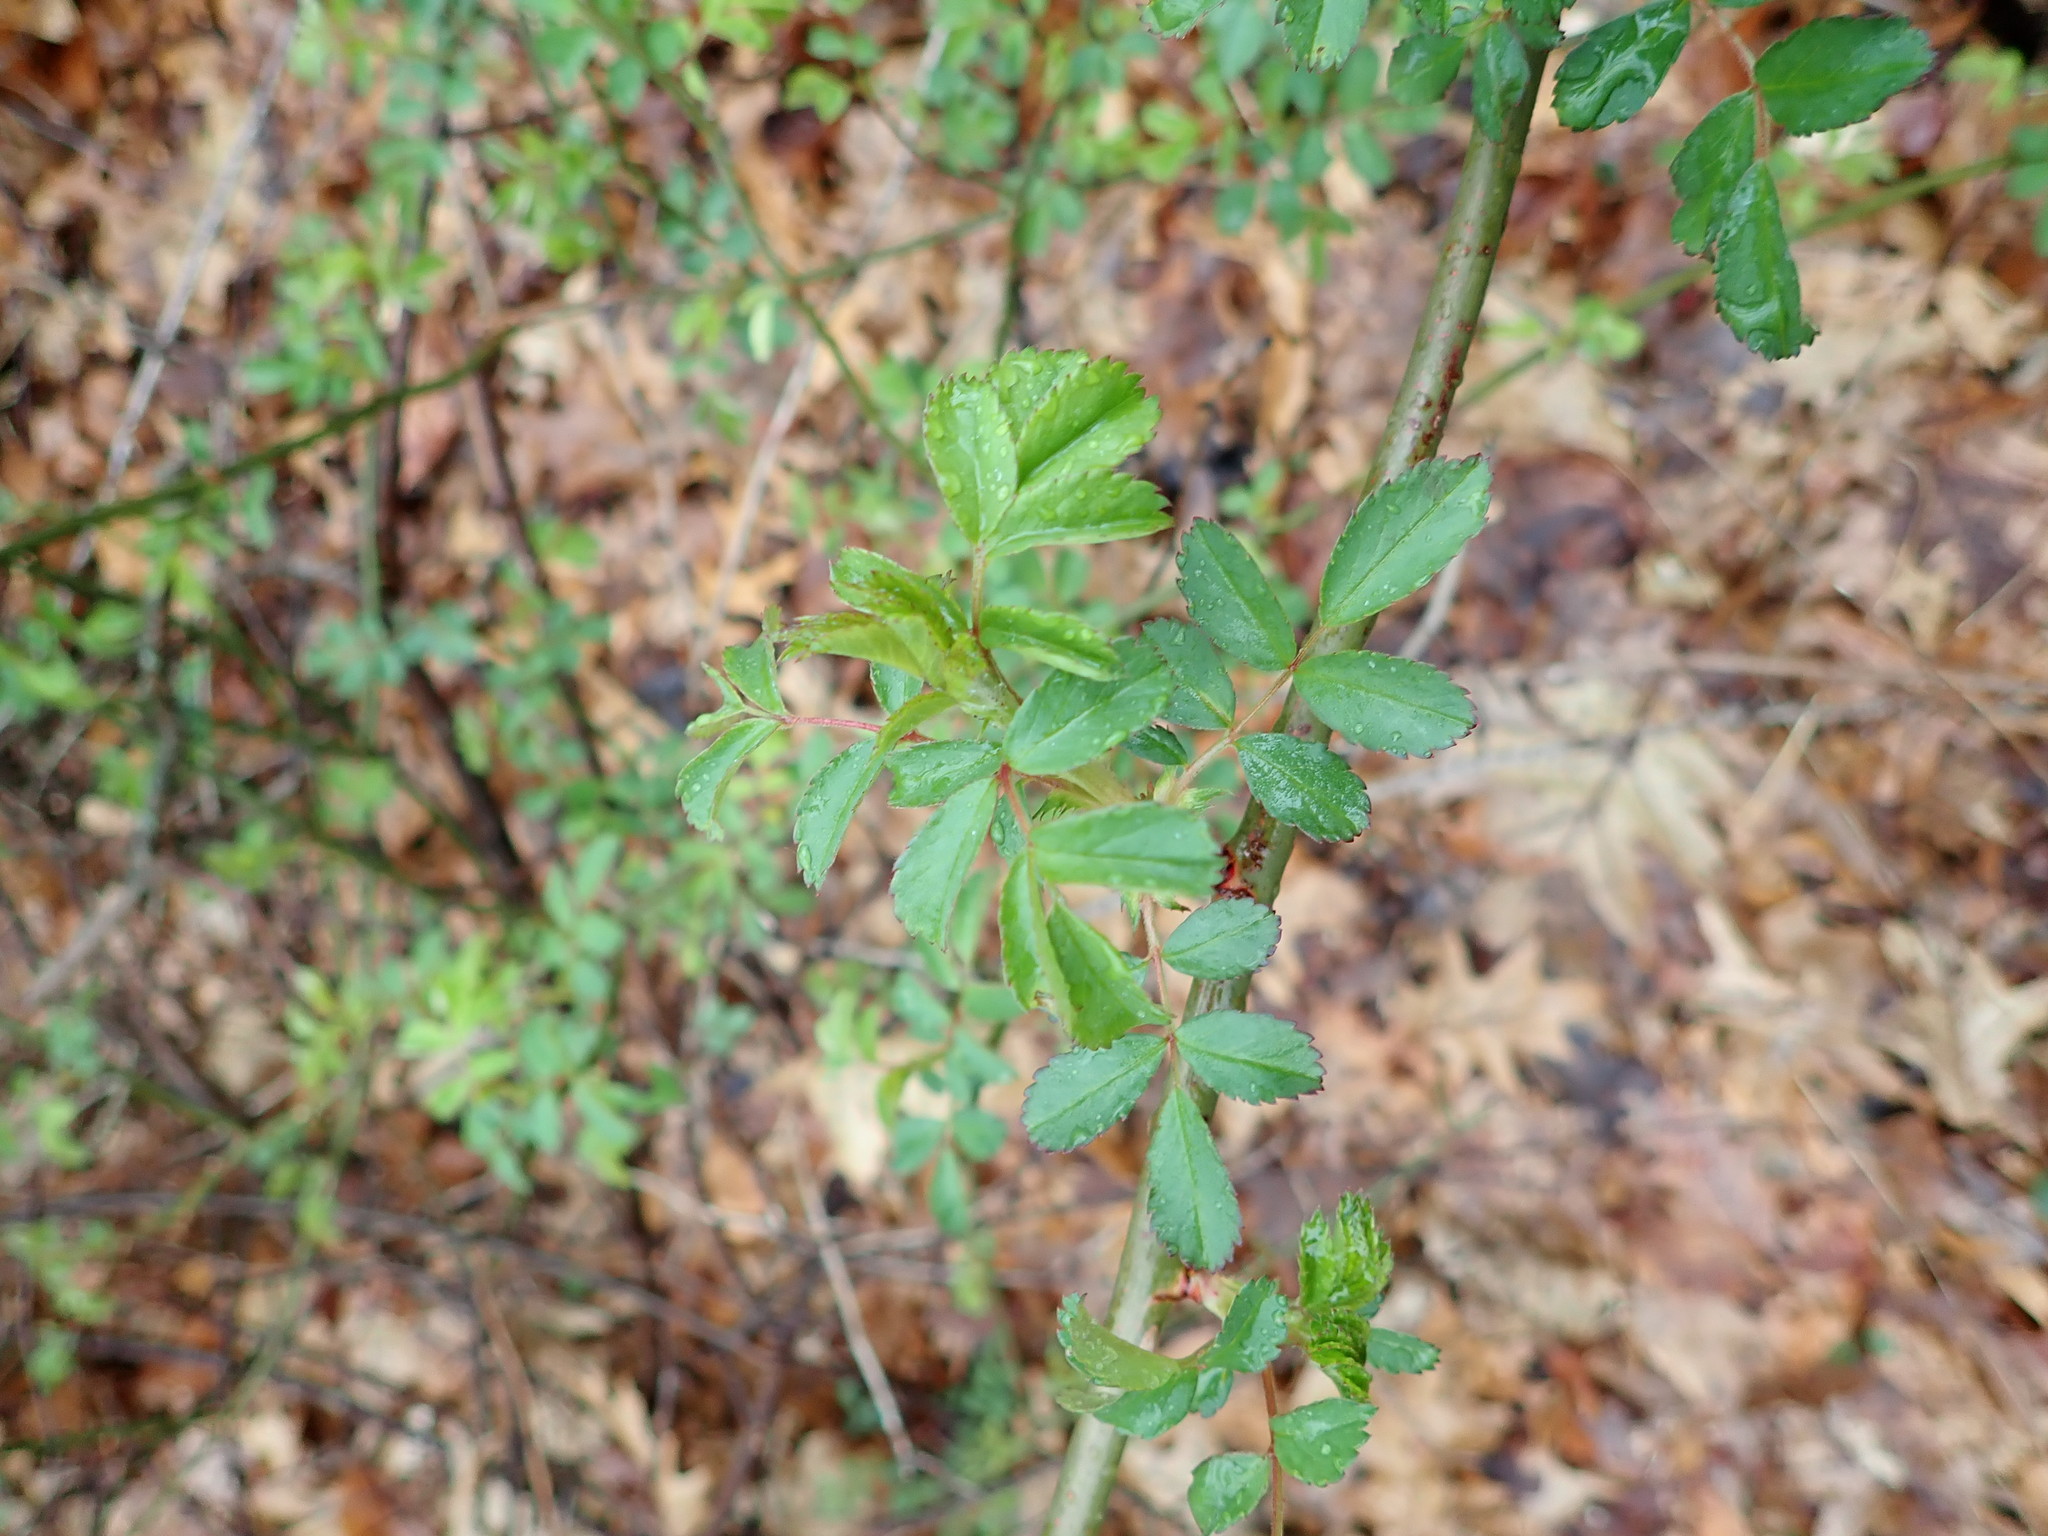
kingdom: Plantae
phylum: Tracheophyta
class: Magnoliopsida
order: Rosales
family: Rosaceae
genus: Rosa
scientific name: Rosa multiflora
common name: Multiflora rose
